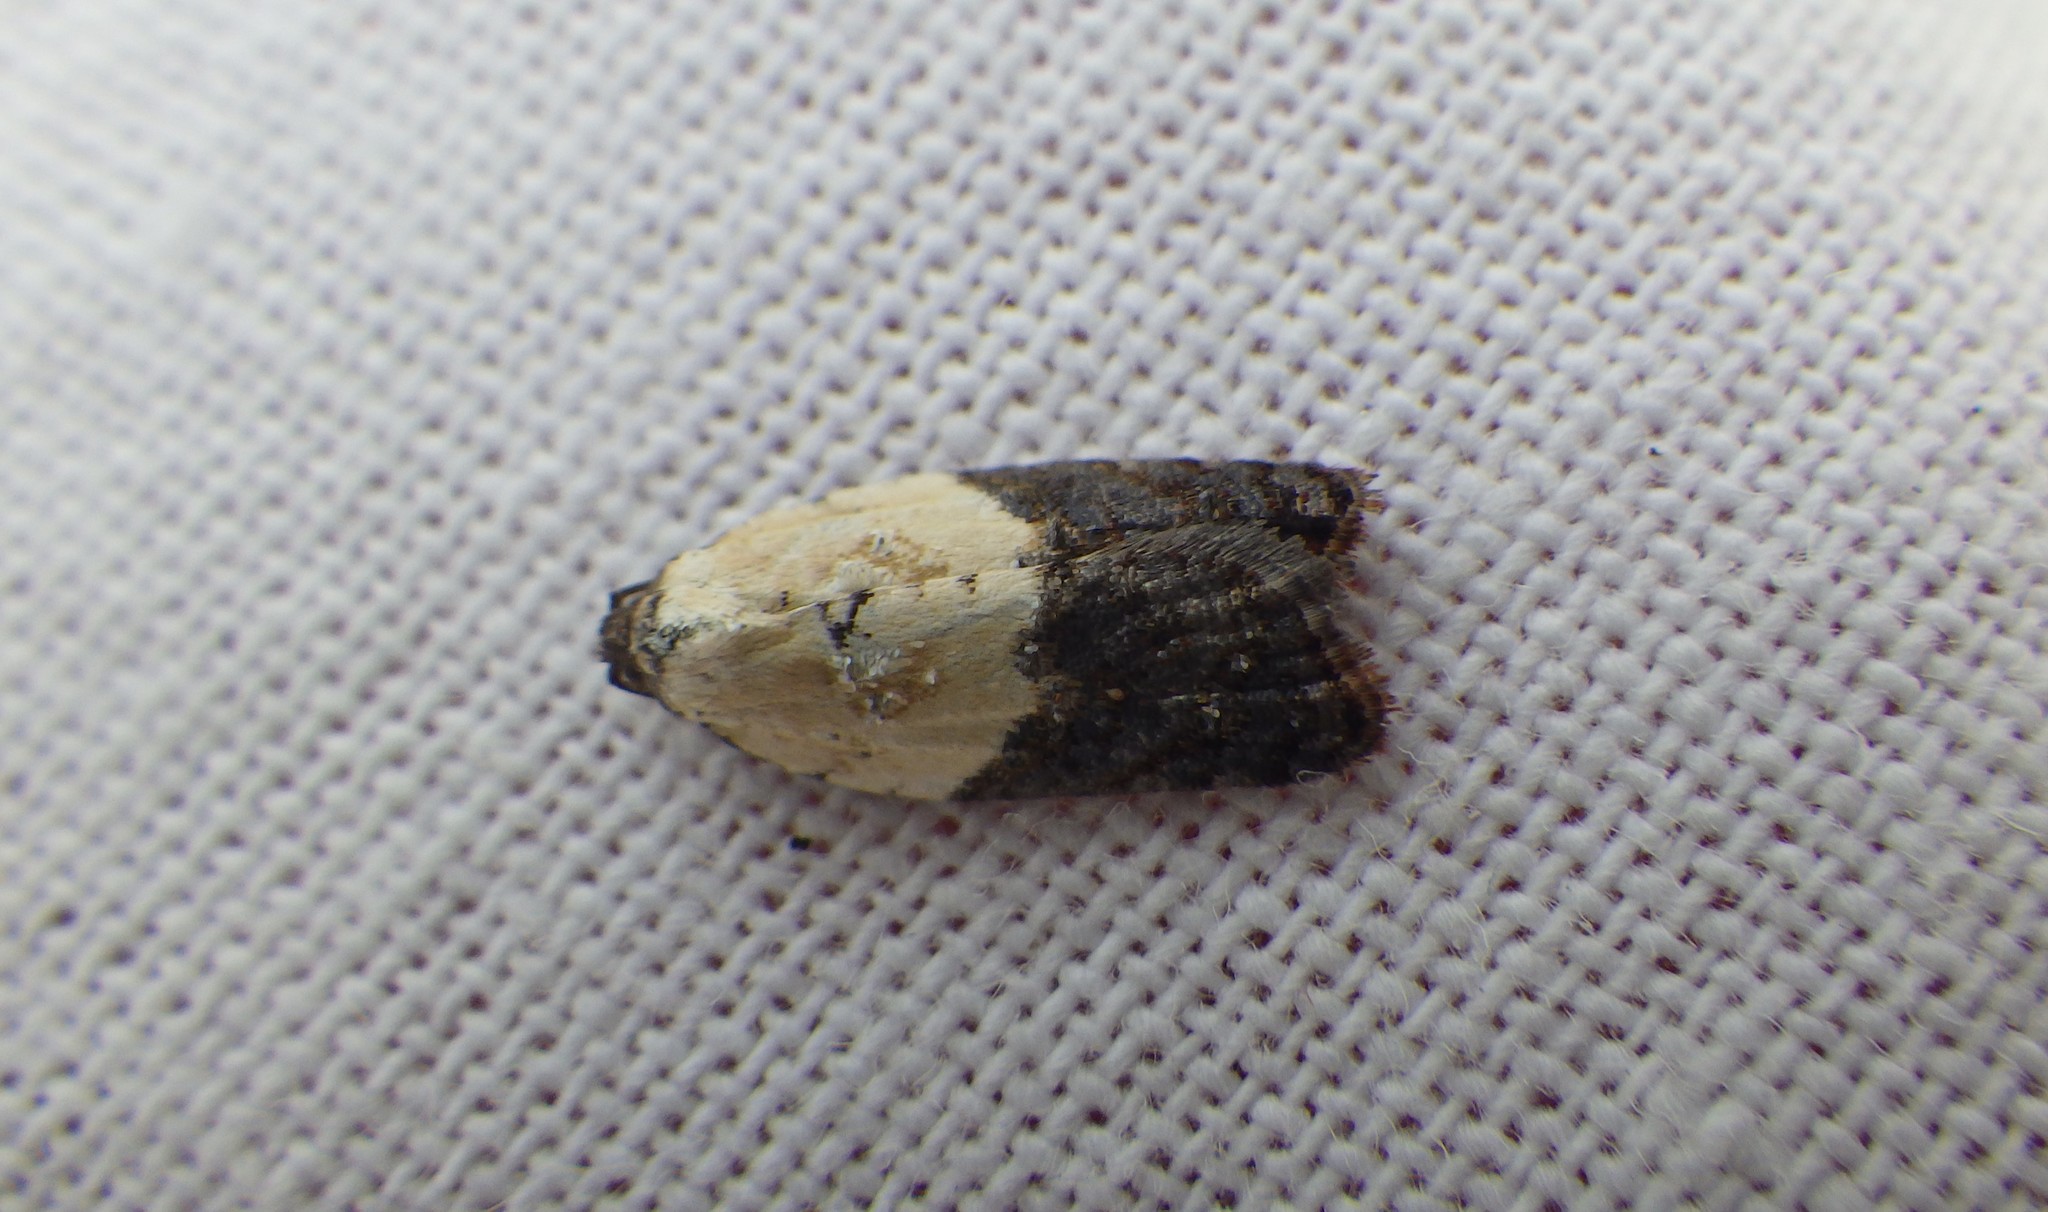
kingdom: Animalia
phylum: Arthropoda
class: Insecta
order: Lepidoptera
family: Tortricidae
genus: Acleris
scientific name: Acleris variegana
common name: Garden rose tortrix
